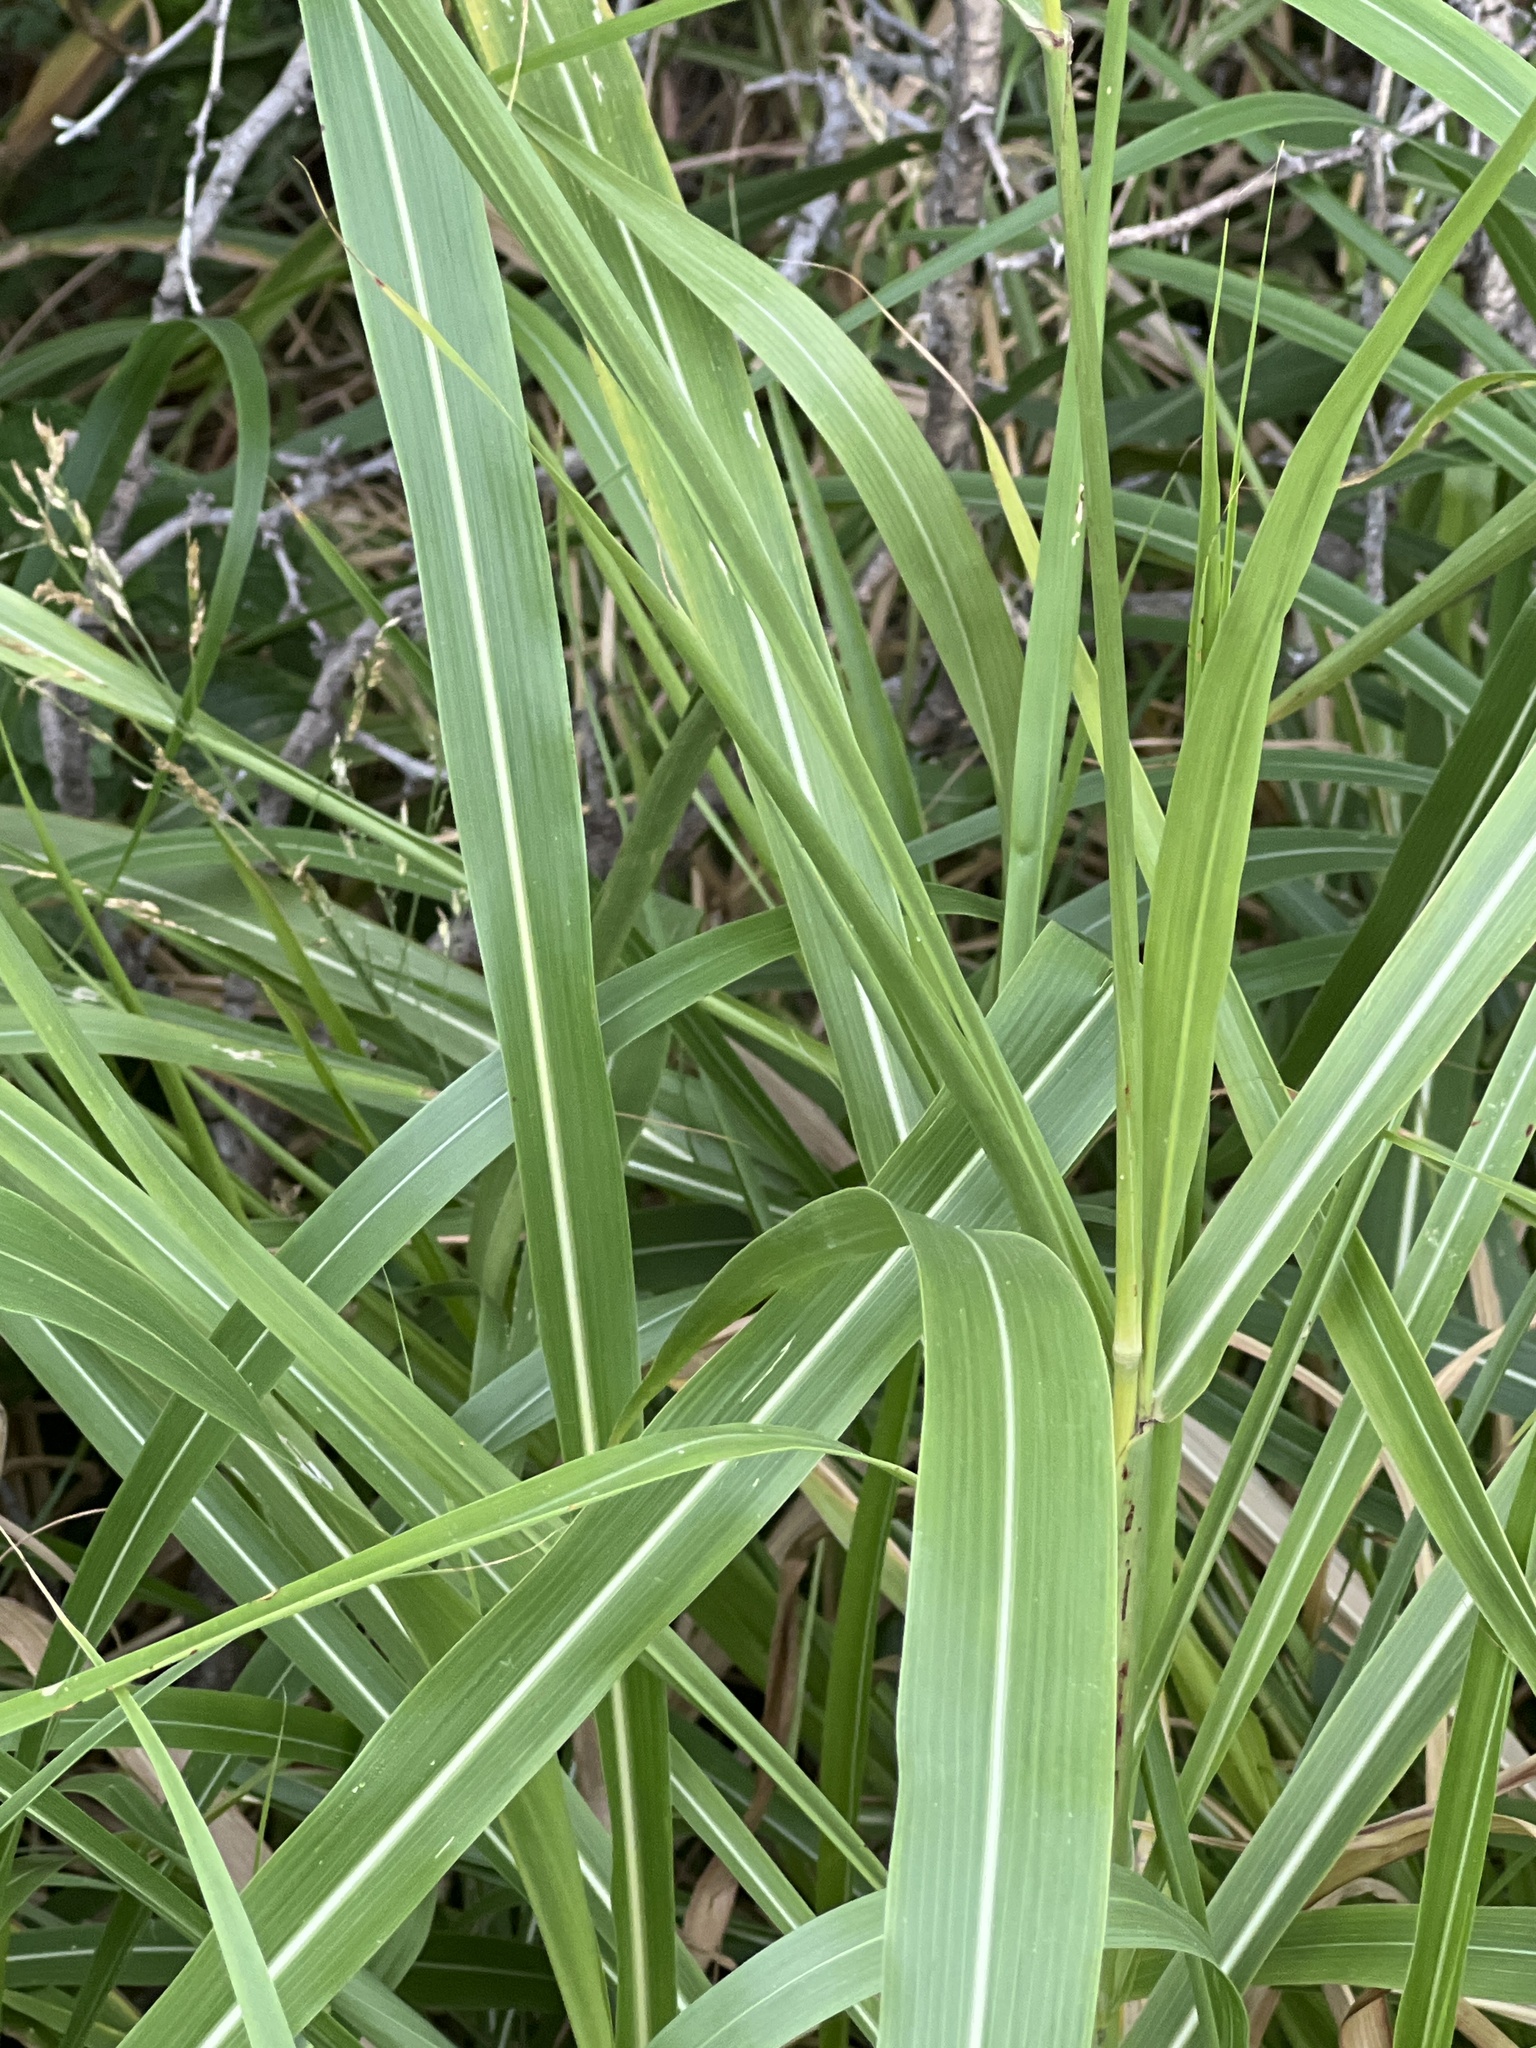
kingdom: Plantae
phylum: Tracheophyta
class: Liliopsida
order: Poales
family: Poaceae
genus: Sorghum
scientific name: Sorghum halepense
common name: Johnson-grass
